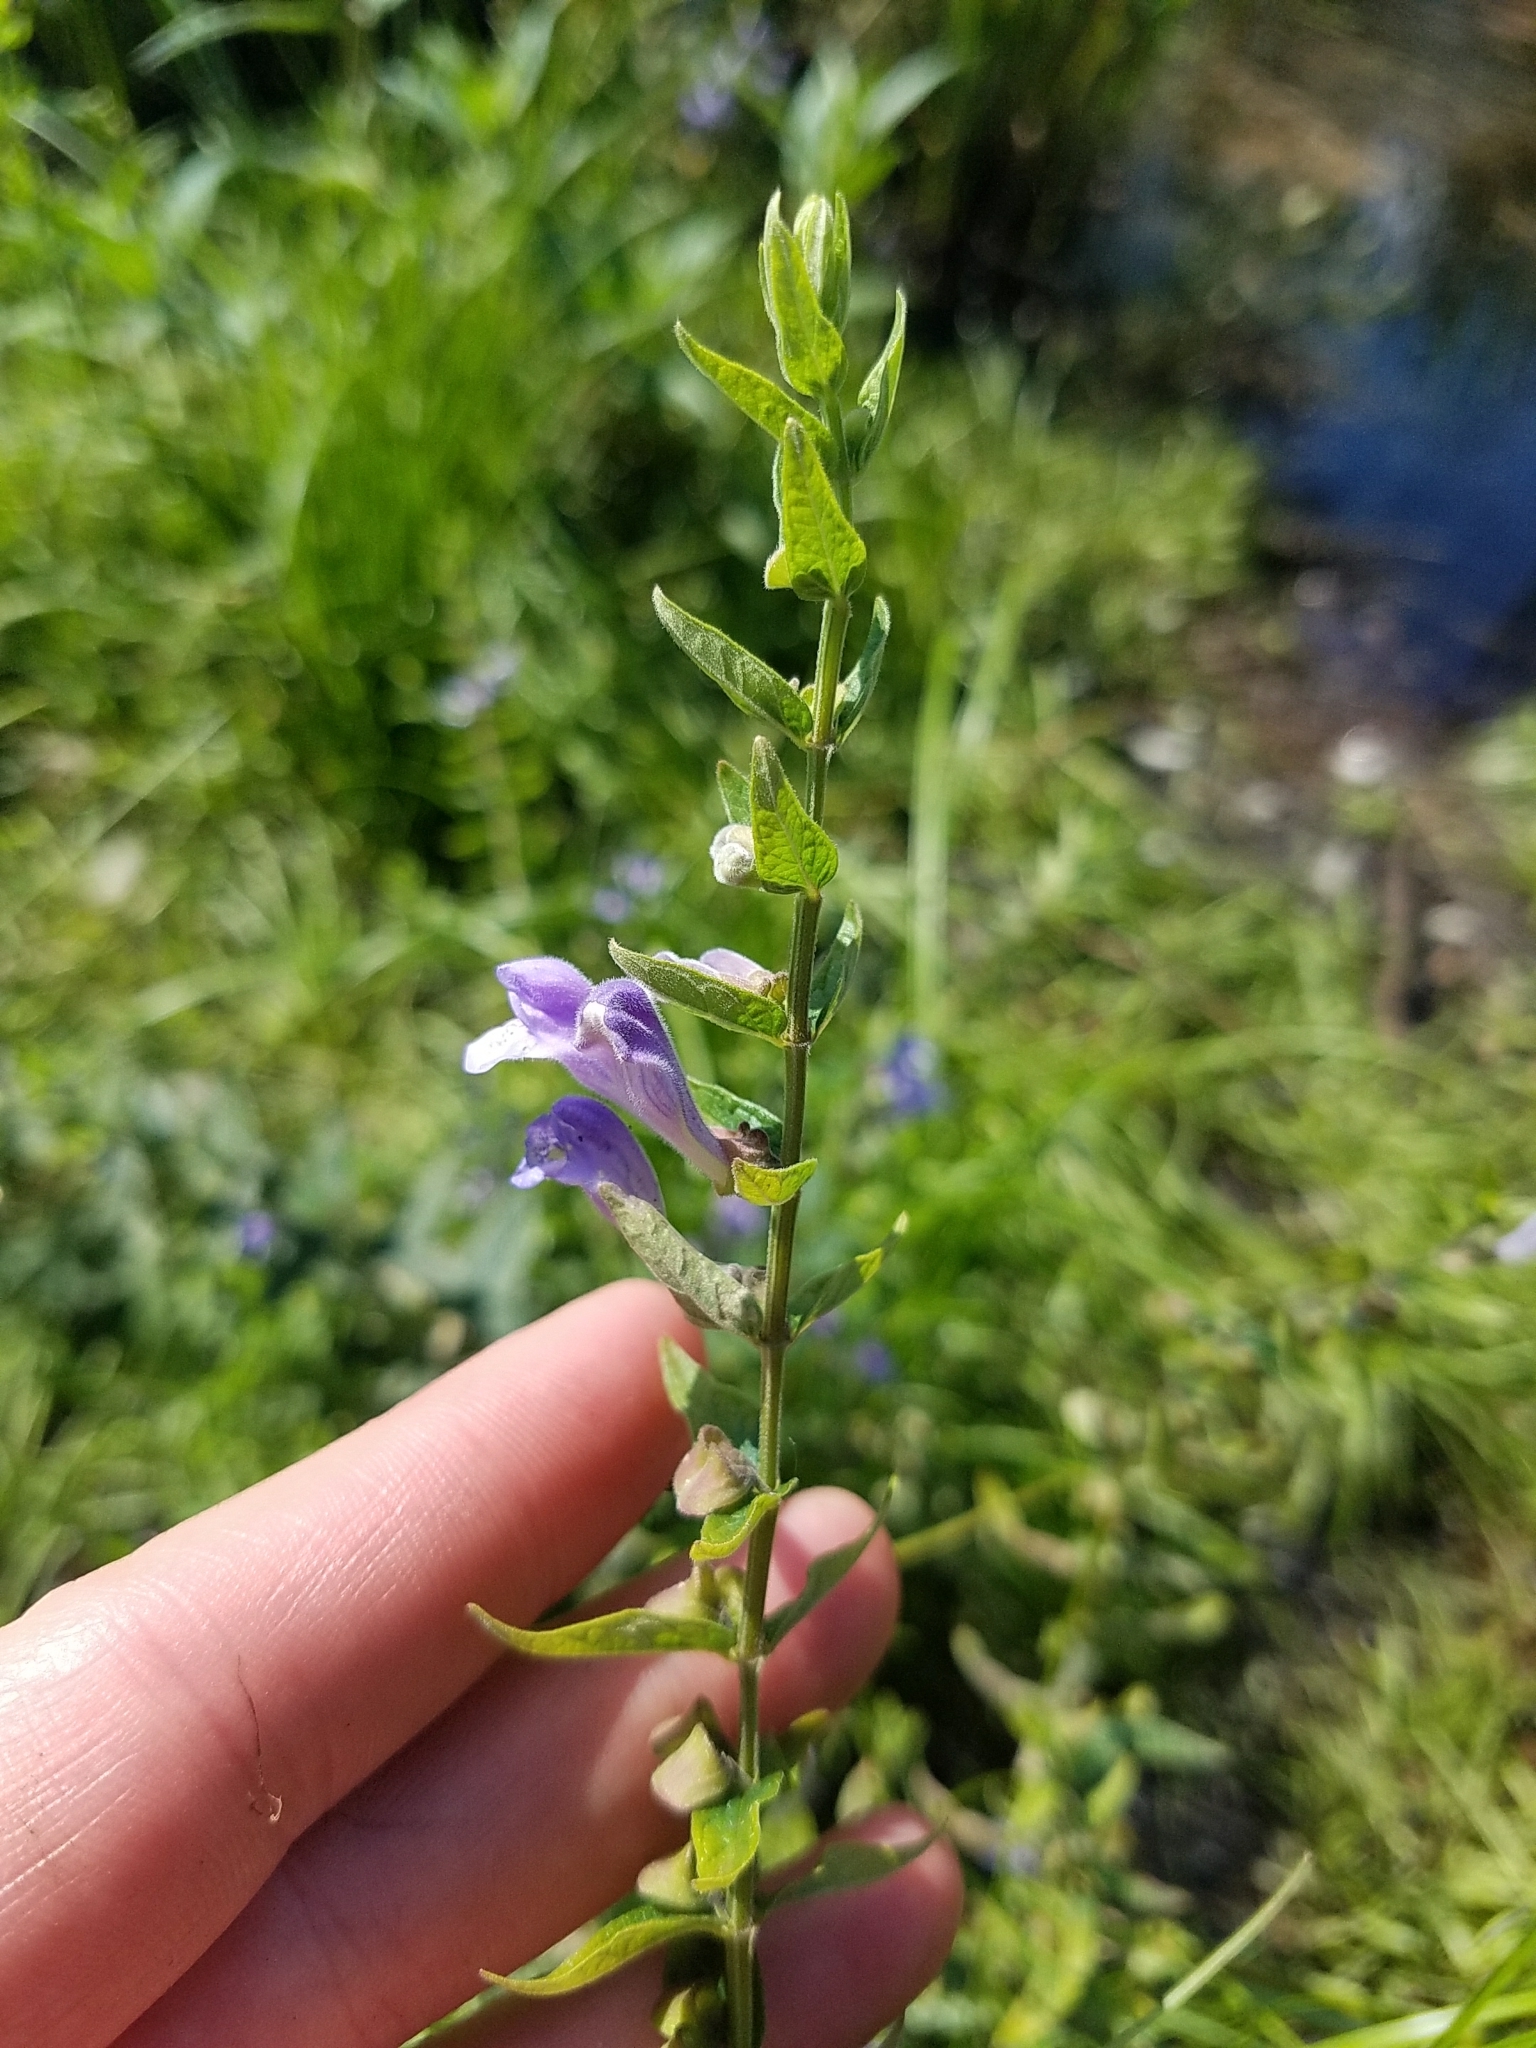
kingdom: Plantae
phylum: Tracheophyta
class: Magnoliopsida
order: Lamiales
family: Lamiaceae
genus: Scutellaria
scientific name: Scutellaria galericulata
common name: Skullcap
